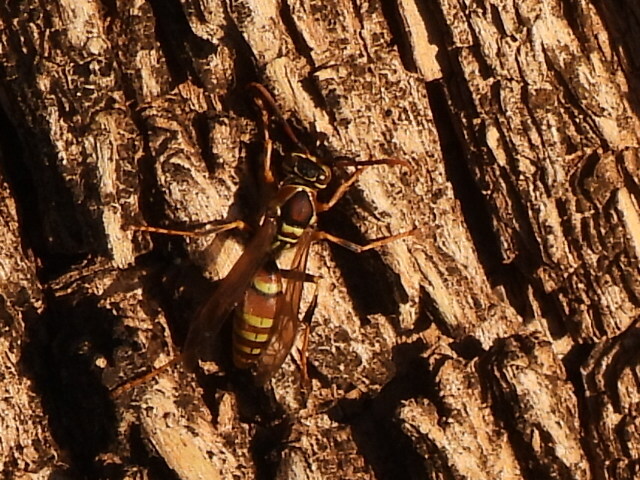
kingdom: Animalia
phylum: Arthropoda
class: Insecta
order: Hymenoptera
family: Eumenidae
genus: Polistes
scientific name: Polistes exclamans
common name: Paper wasp
